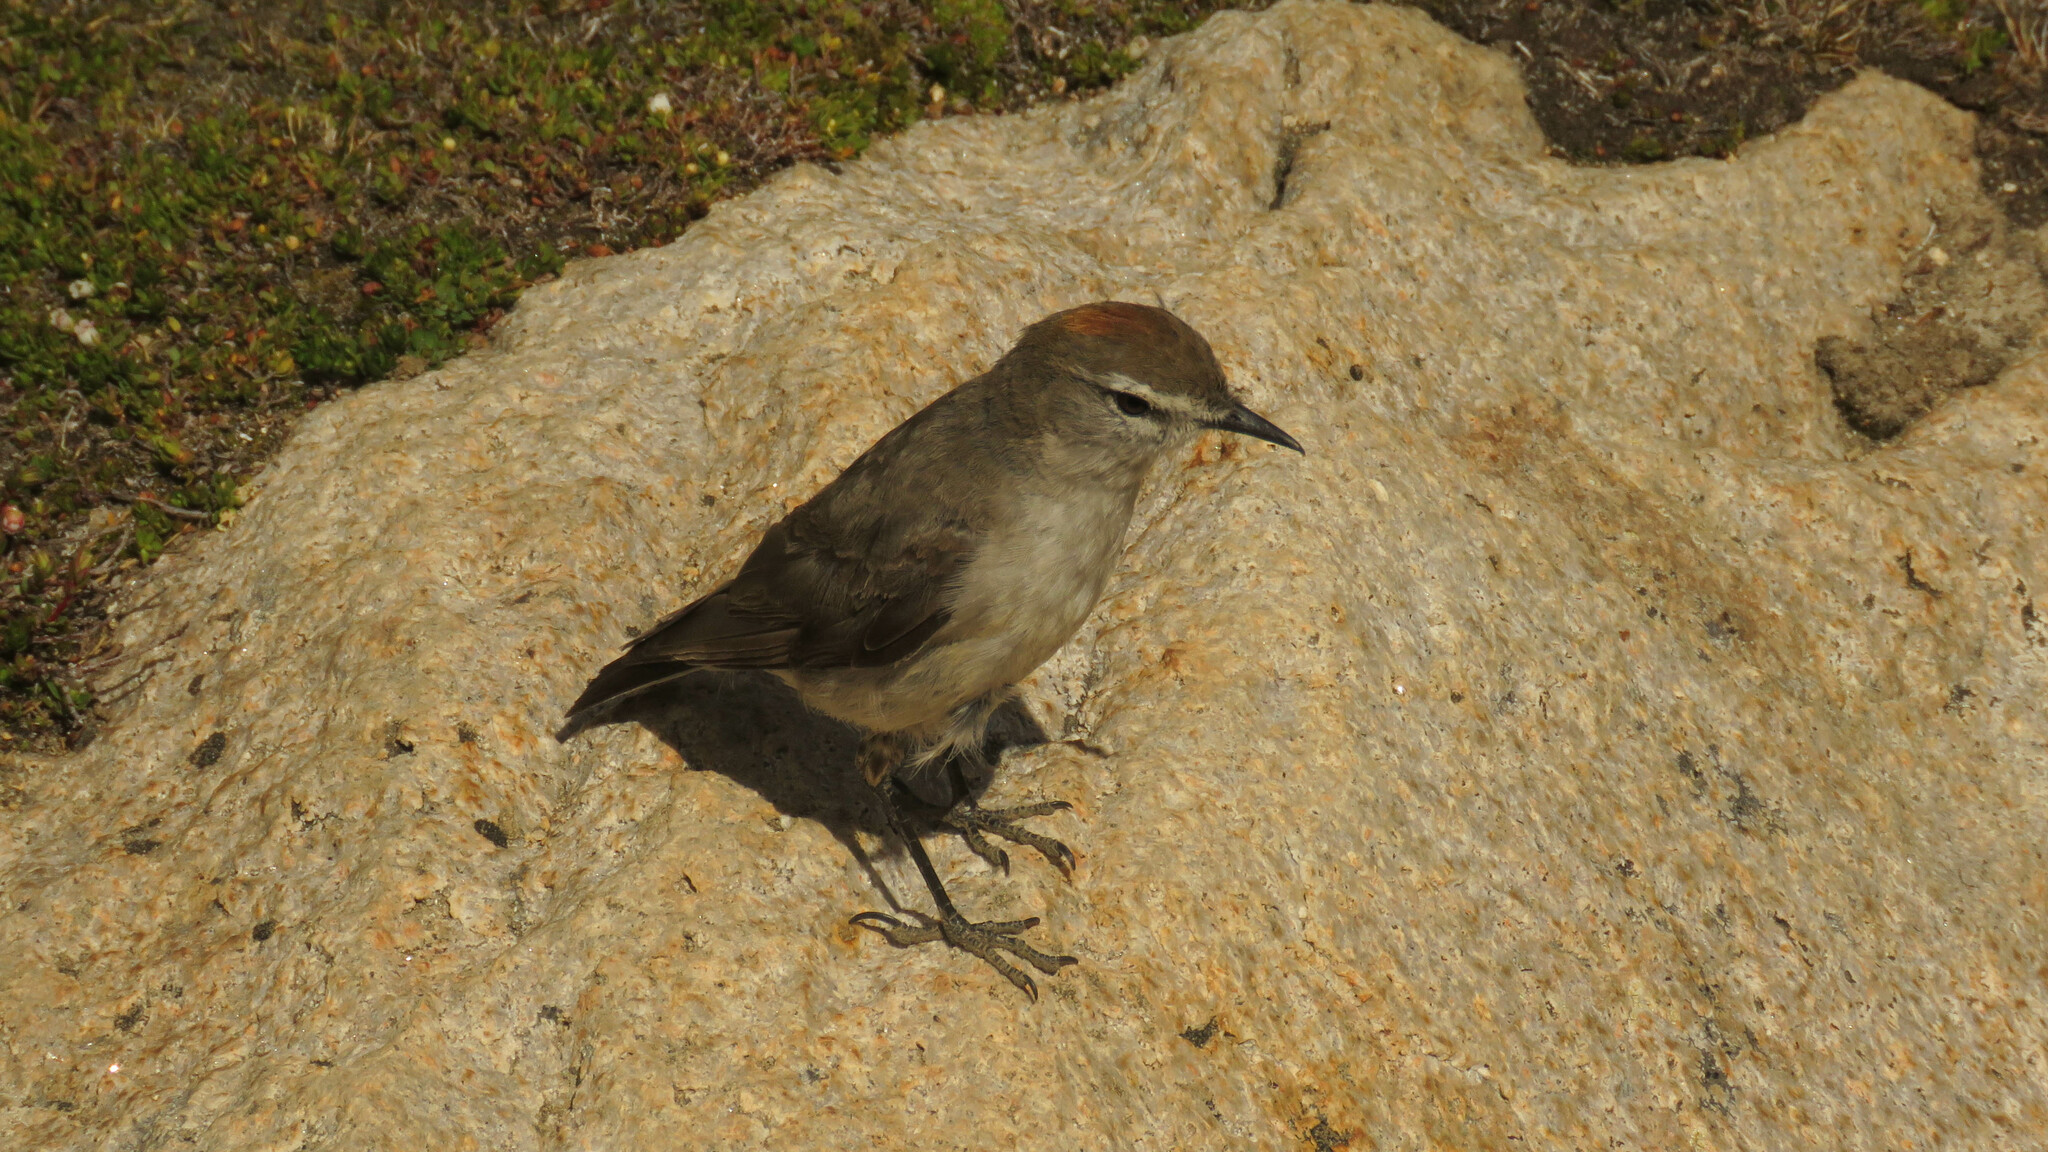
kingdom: Animalia
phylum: Chordata
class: Aves
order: Passeriformes
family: Tyrannidae
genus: Muscisaxicola
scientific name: Muscisaxicola albilora
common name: White-browed ground tyrant
